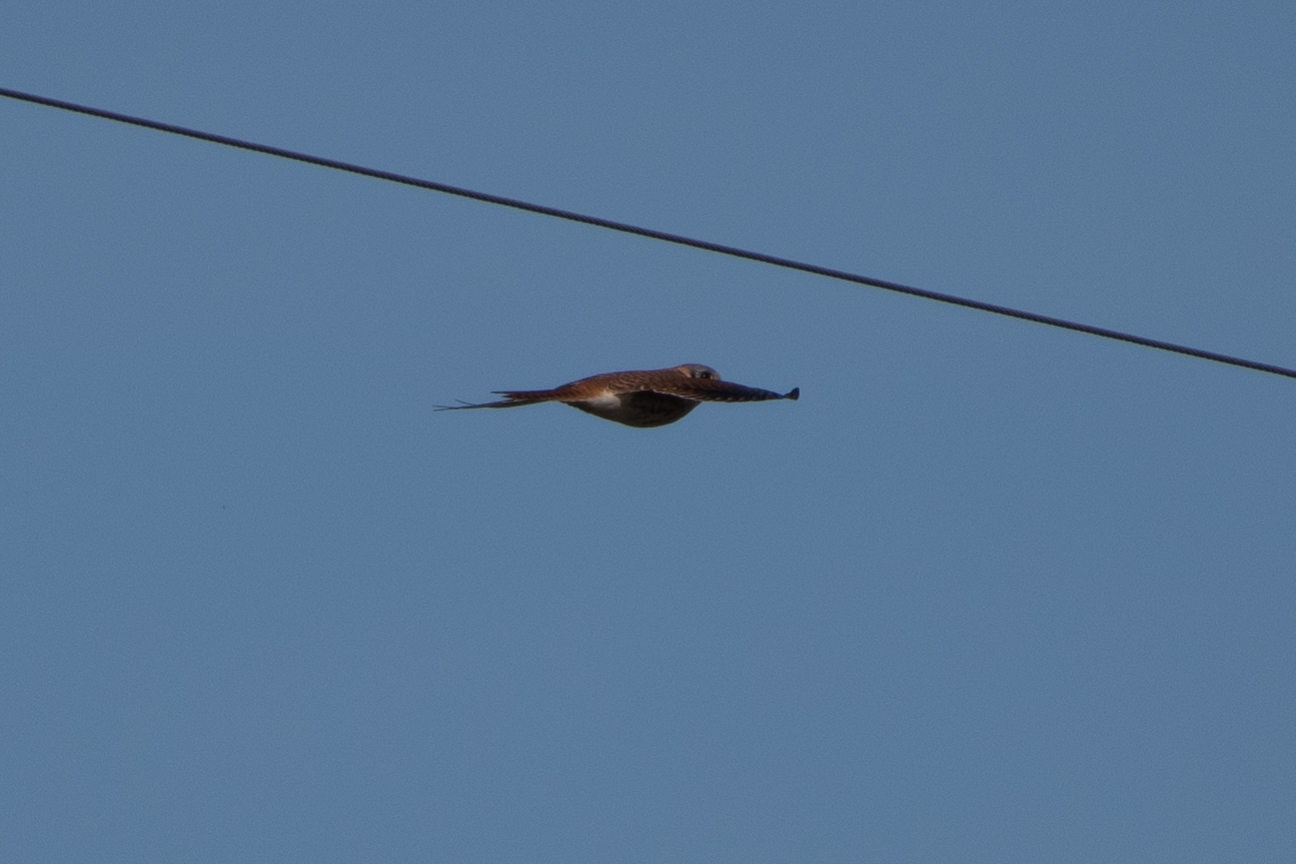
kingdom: Animalia
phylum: Chordata
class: Aves
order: Falconiformes
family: Falconidae
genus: Falco
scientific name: Falco sparverius
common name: American kestrel
